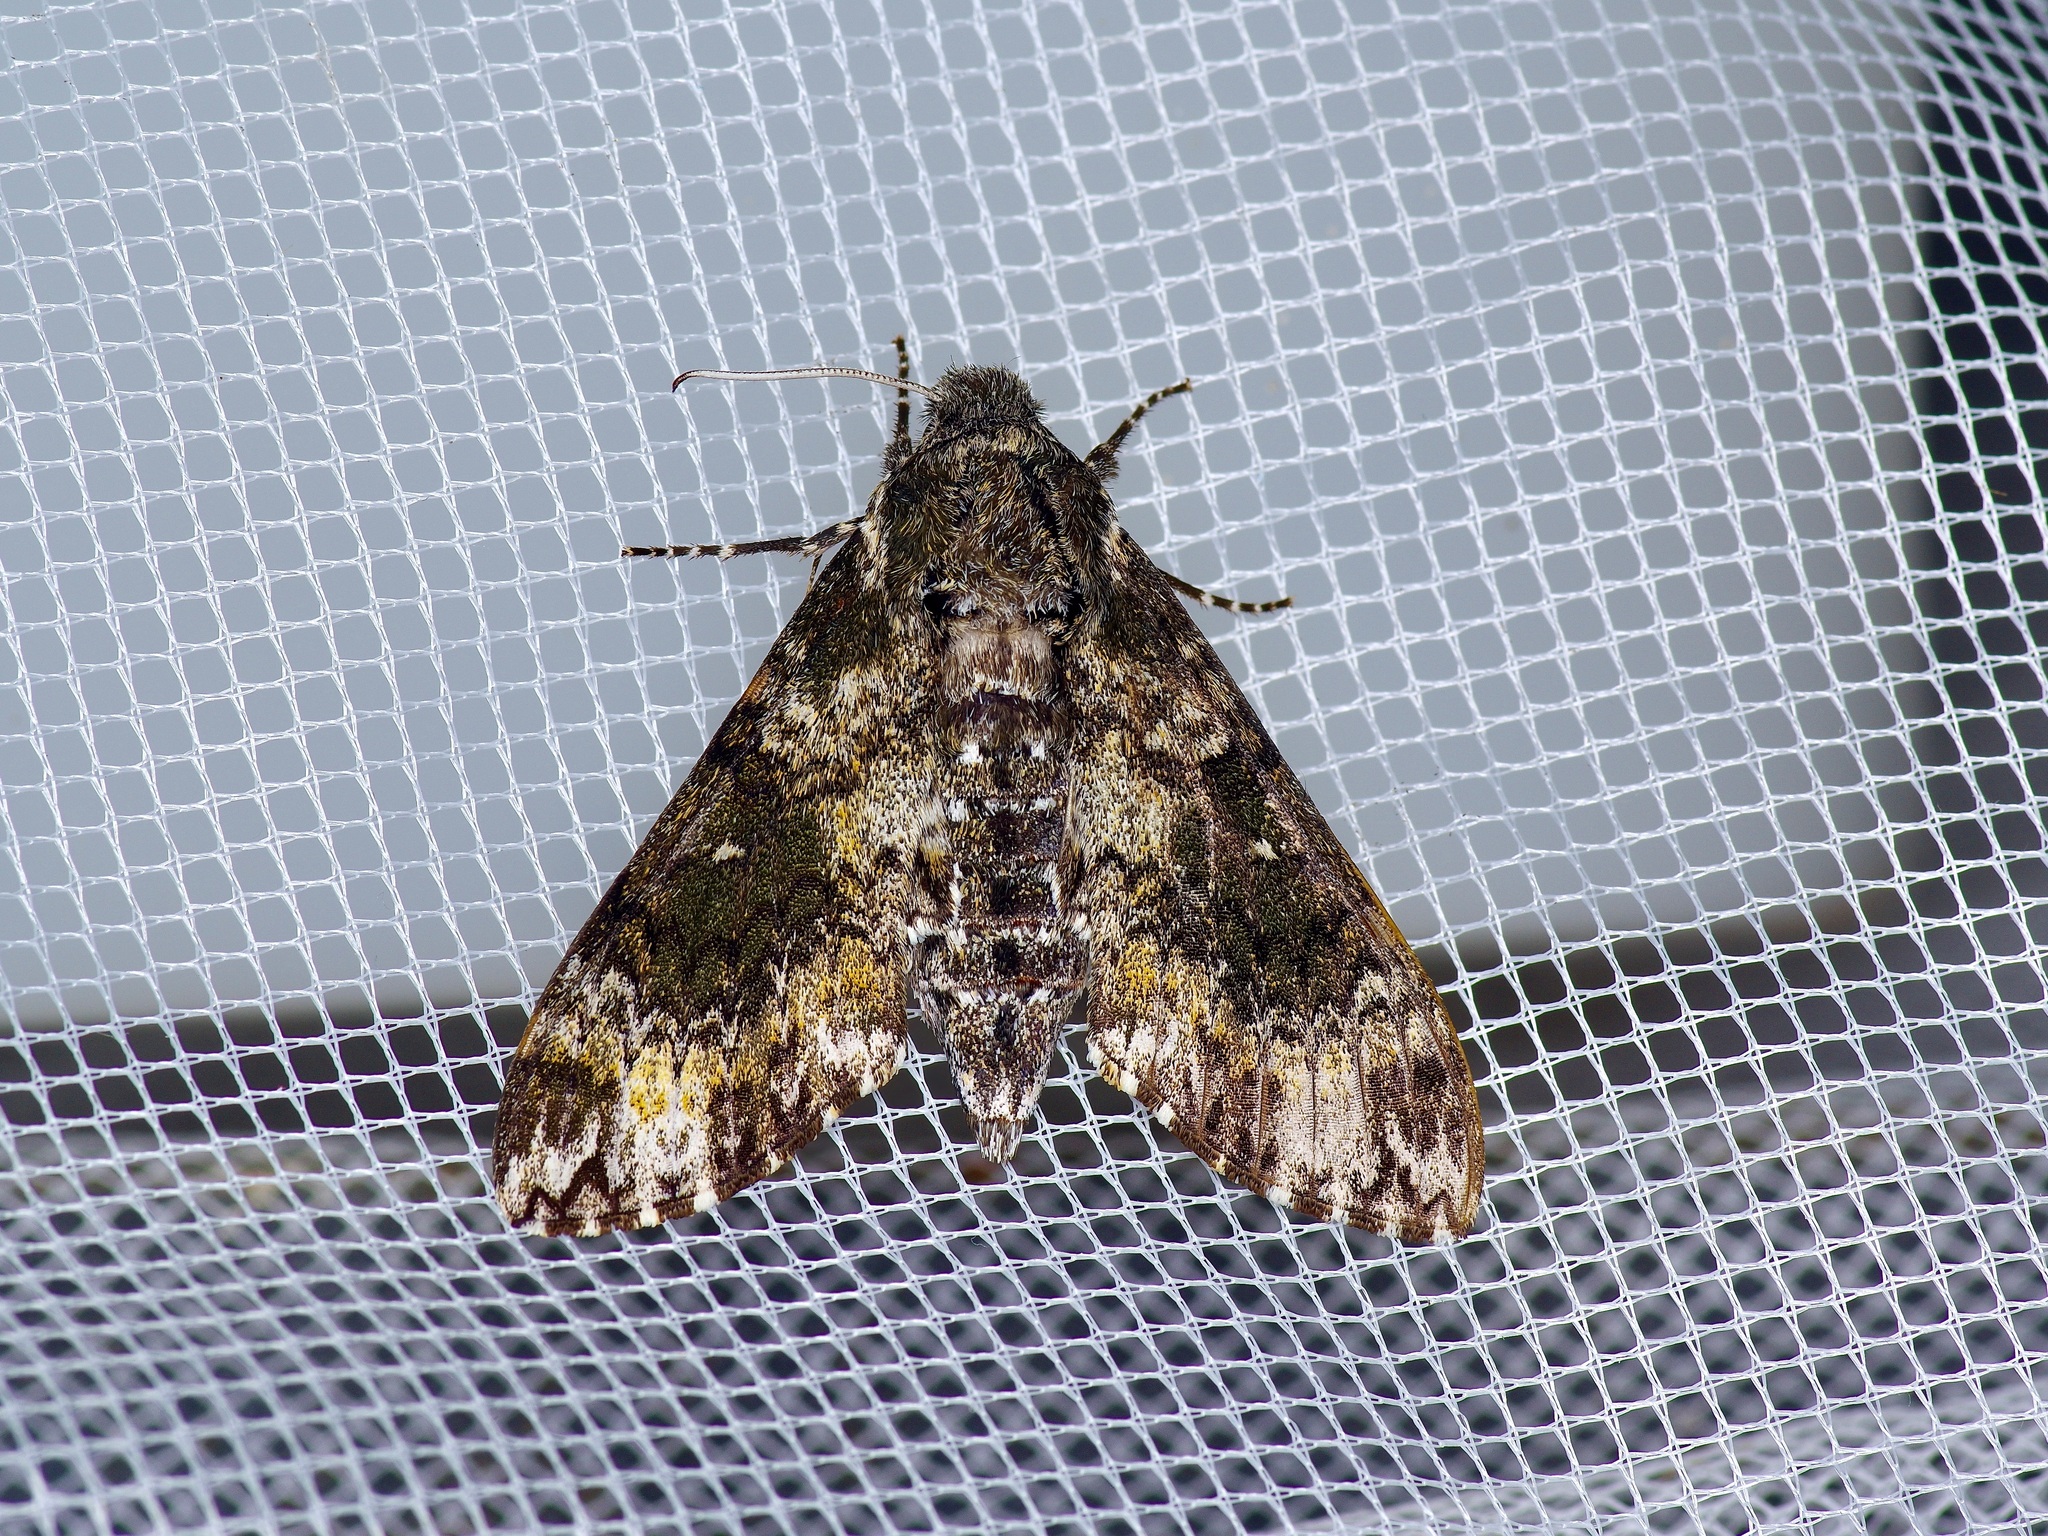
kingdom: Animalia
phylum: Arthropoda
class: Insecta
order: Lepidoptera
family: Sphingidae
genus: Dolba
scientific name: Dolba hyloeus
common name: Pawpaw sphinx
